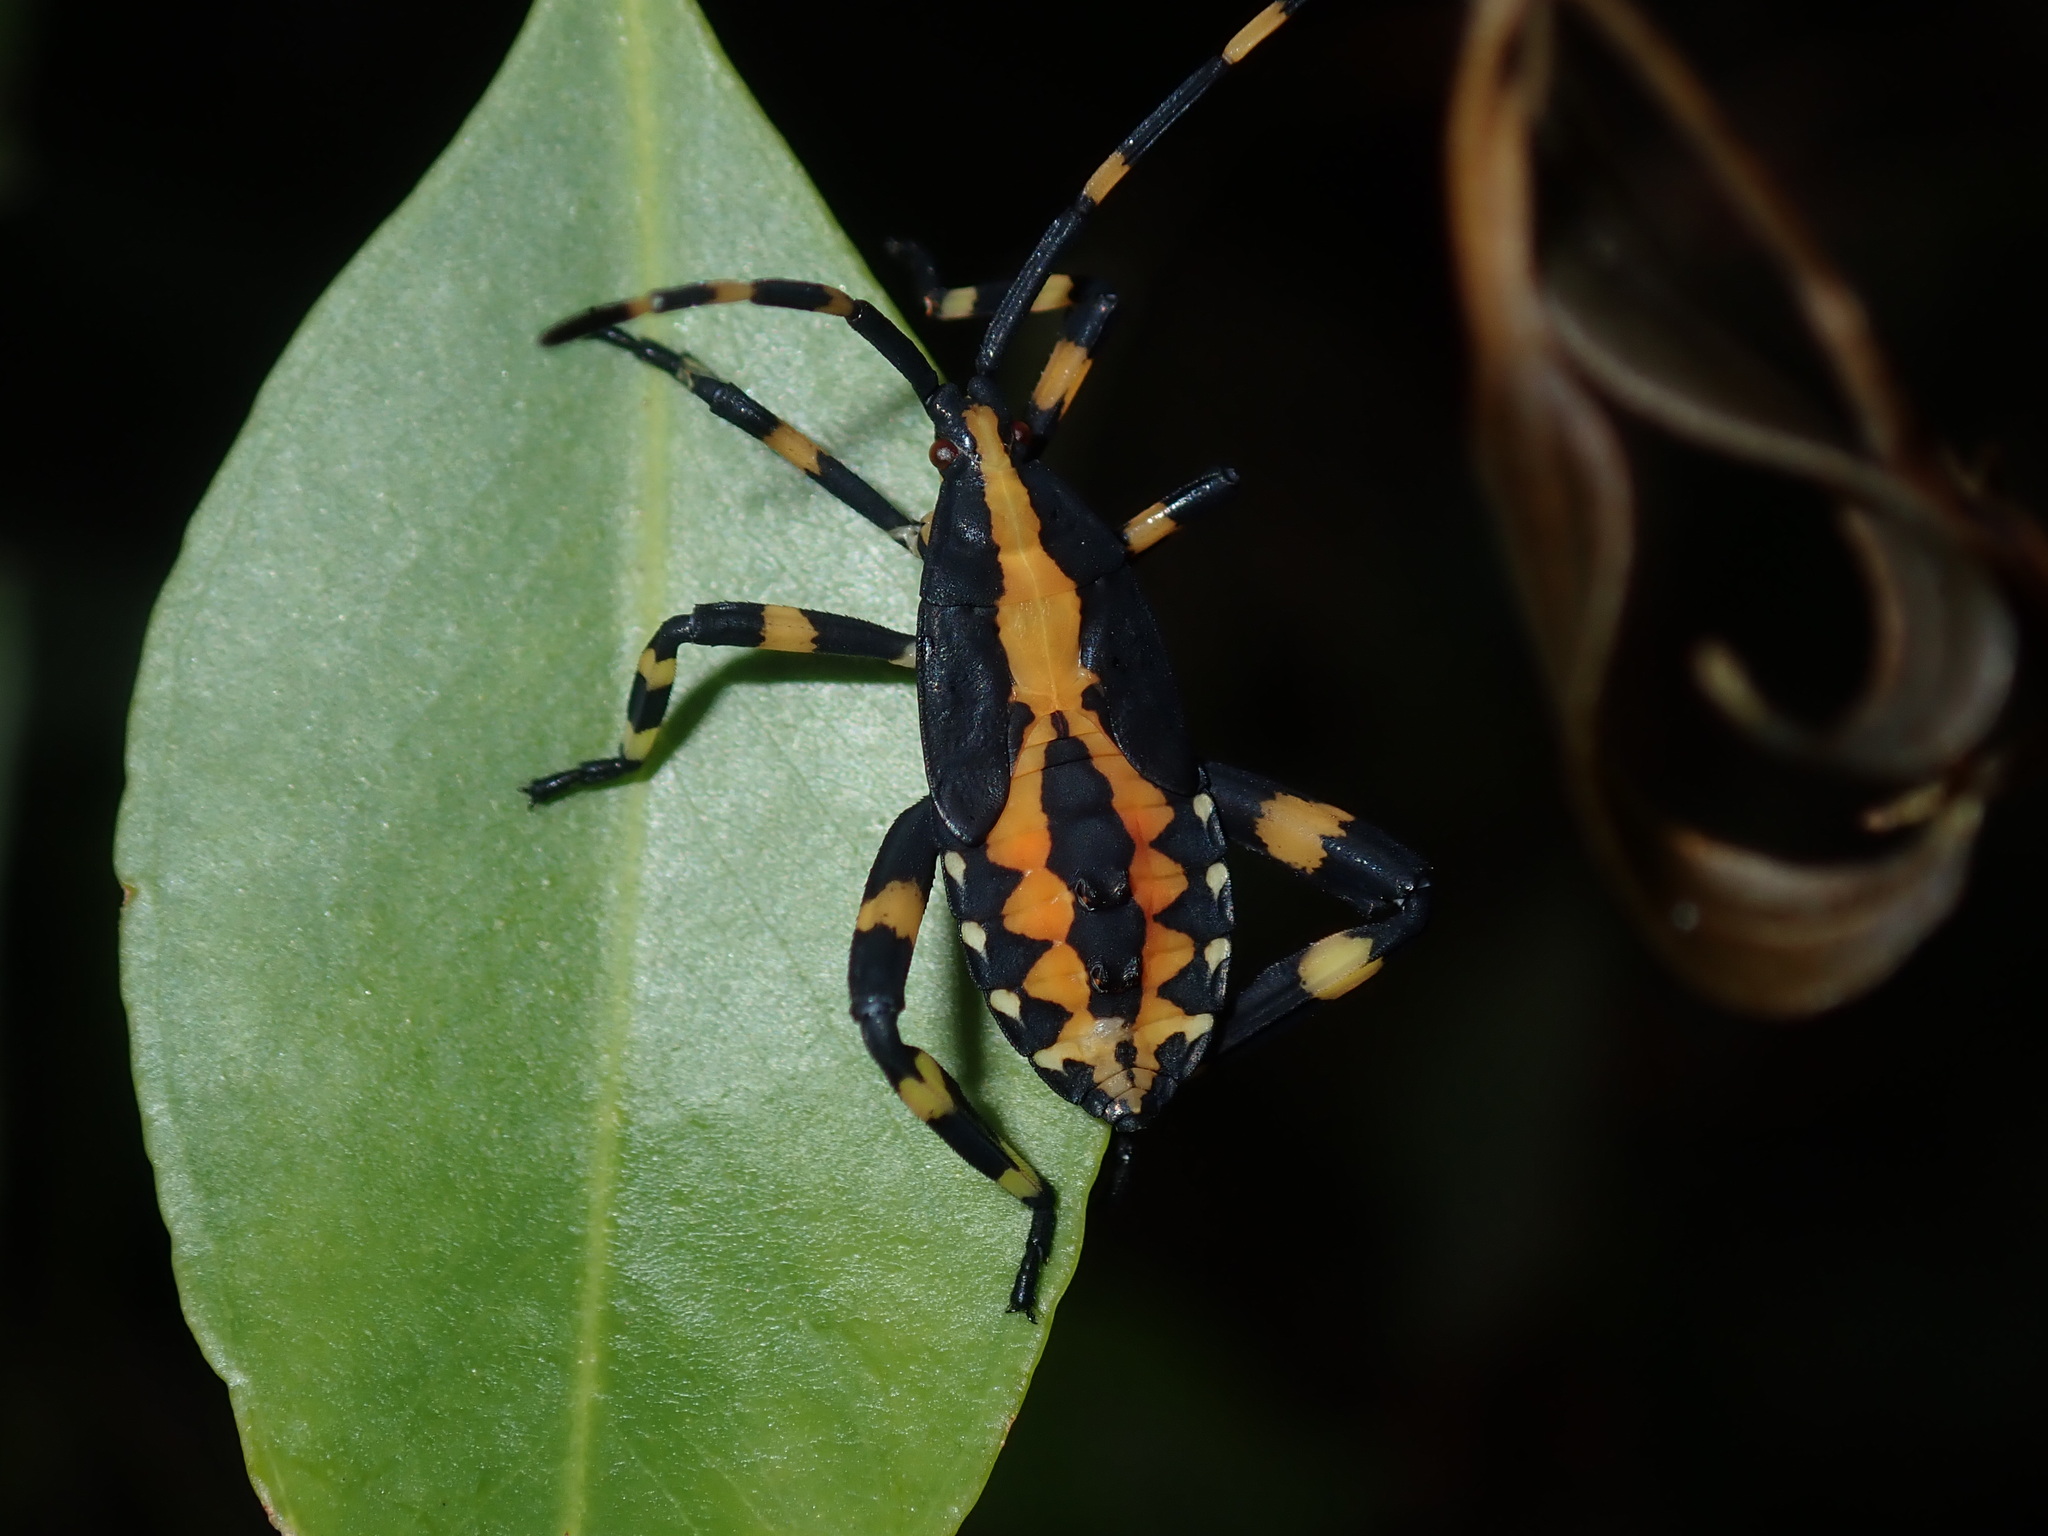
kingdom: Animalia
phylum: Arthropoda
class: Insecta
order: Hemiptera
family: Coreidae
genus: Amorbus
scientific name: Amorbus atomarius
